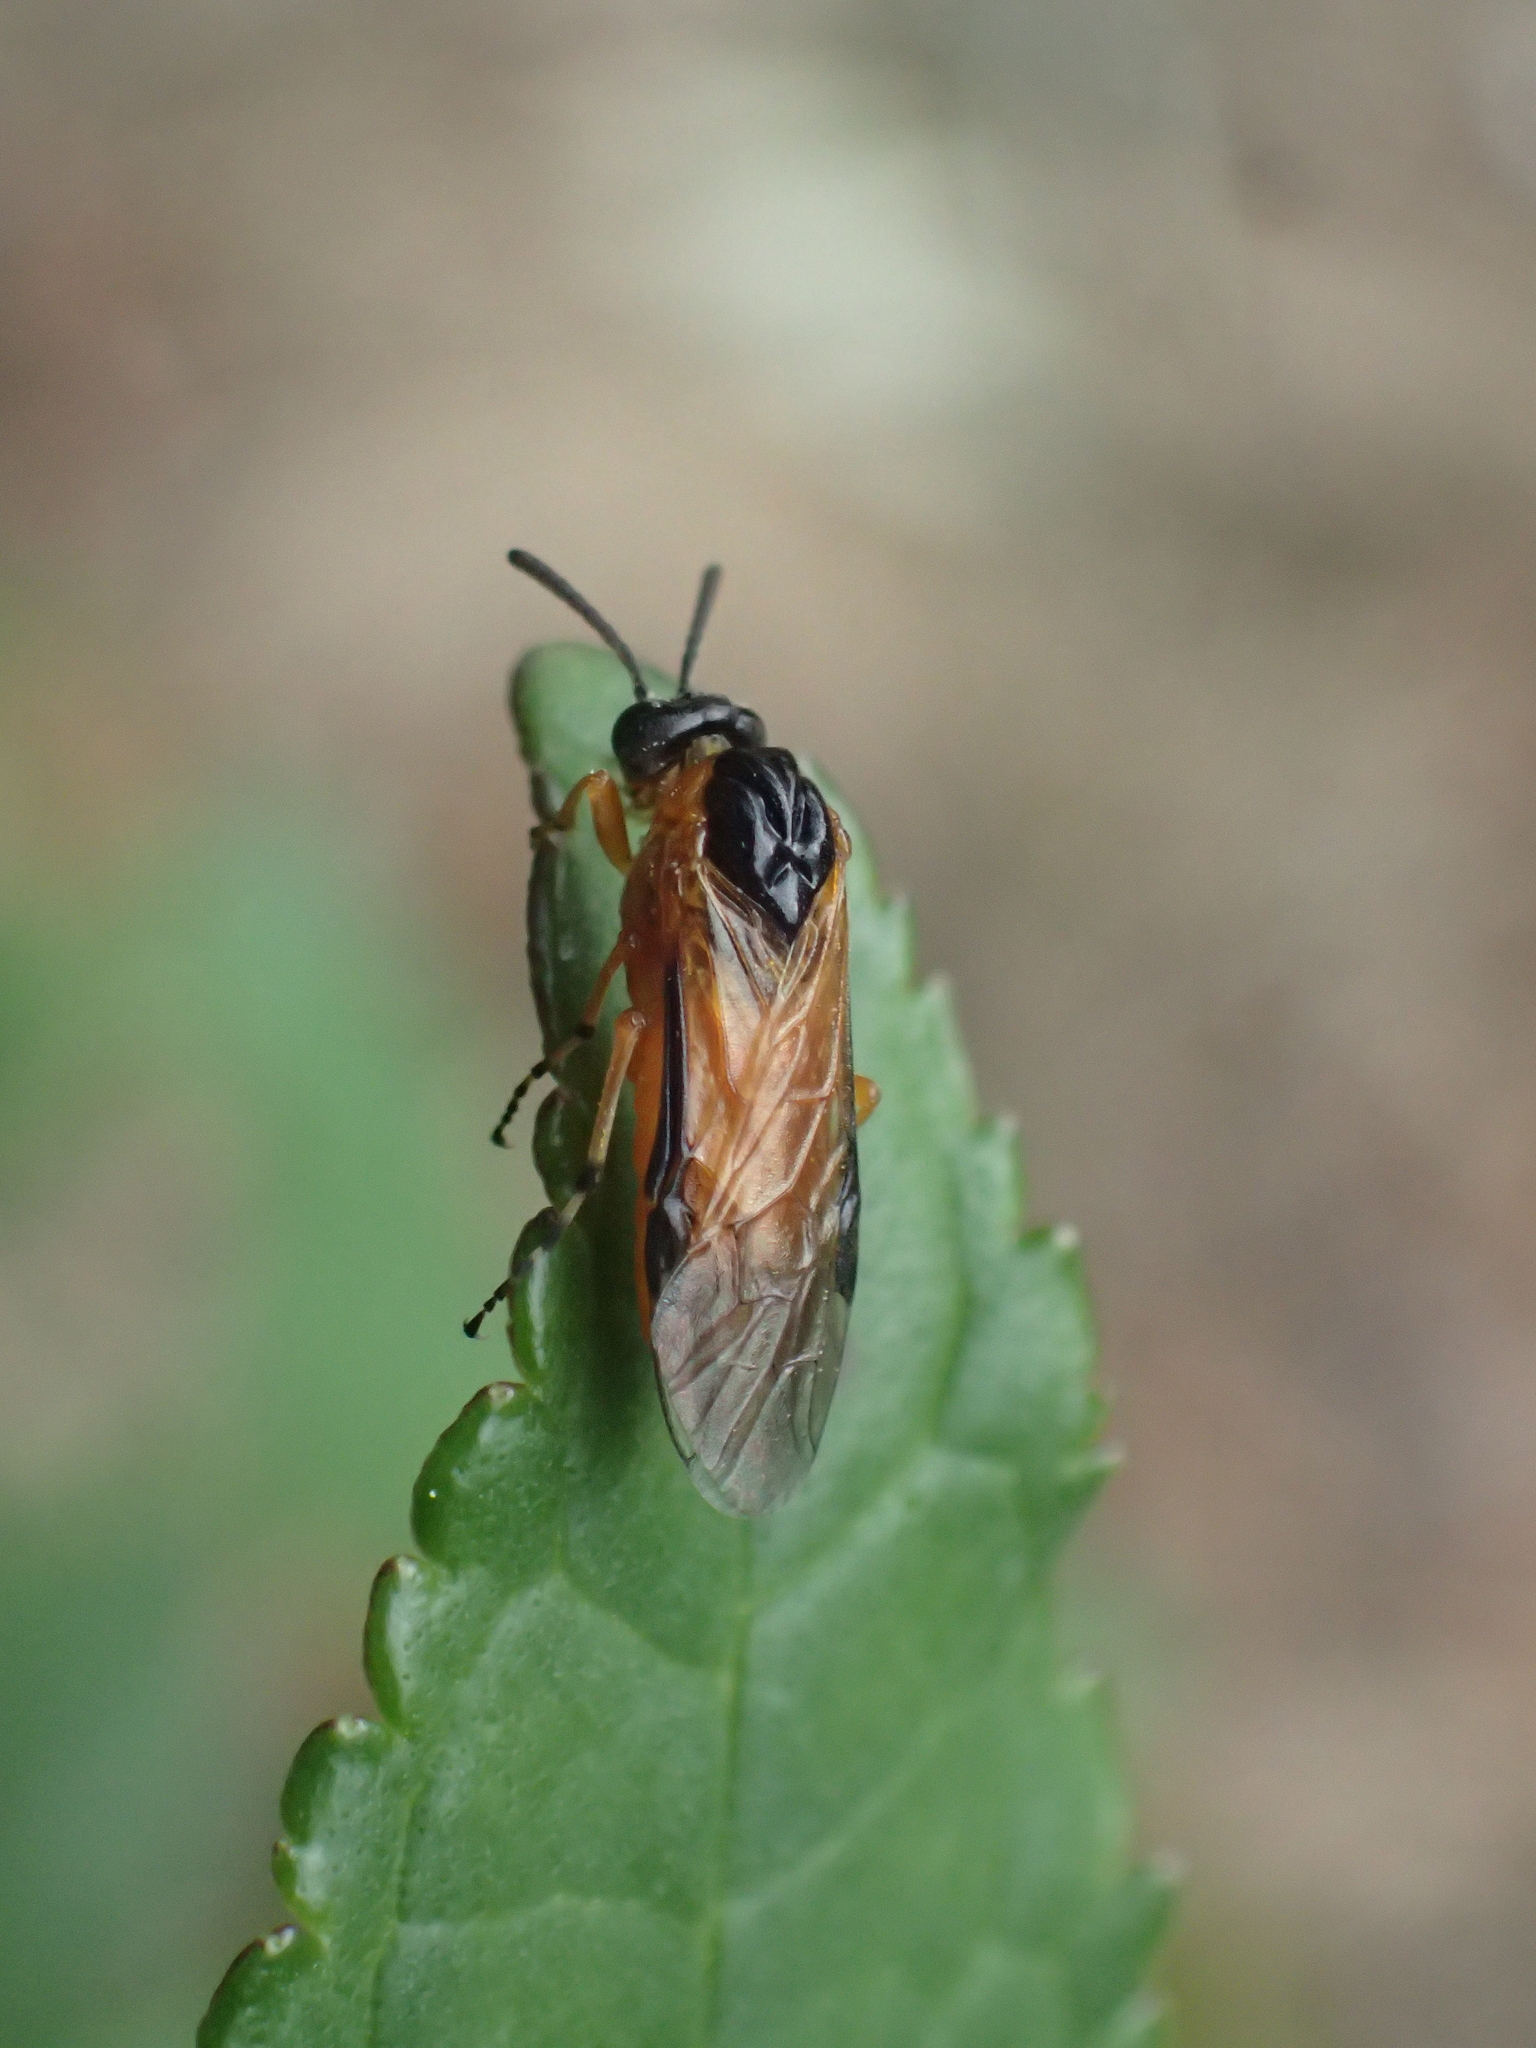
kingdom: Animalia
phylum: Arthropoda
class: Insecta
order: Hymenoptera
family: Tenthredinidae
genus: Athalia
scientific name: Athalia ancilla
